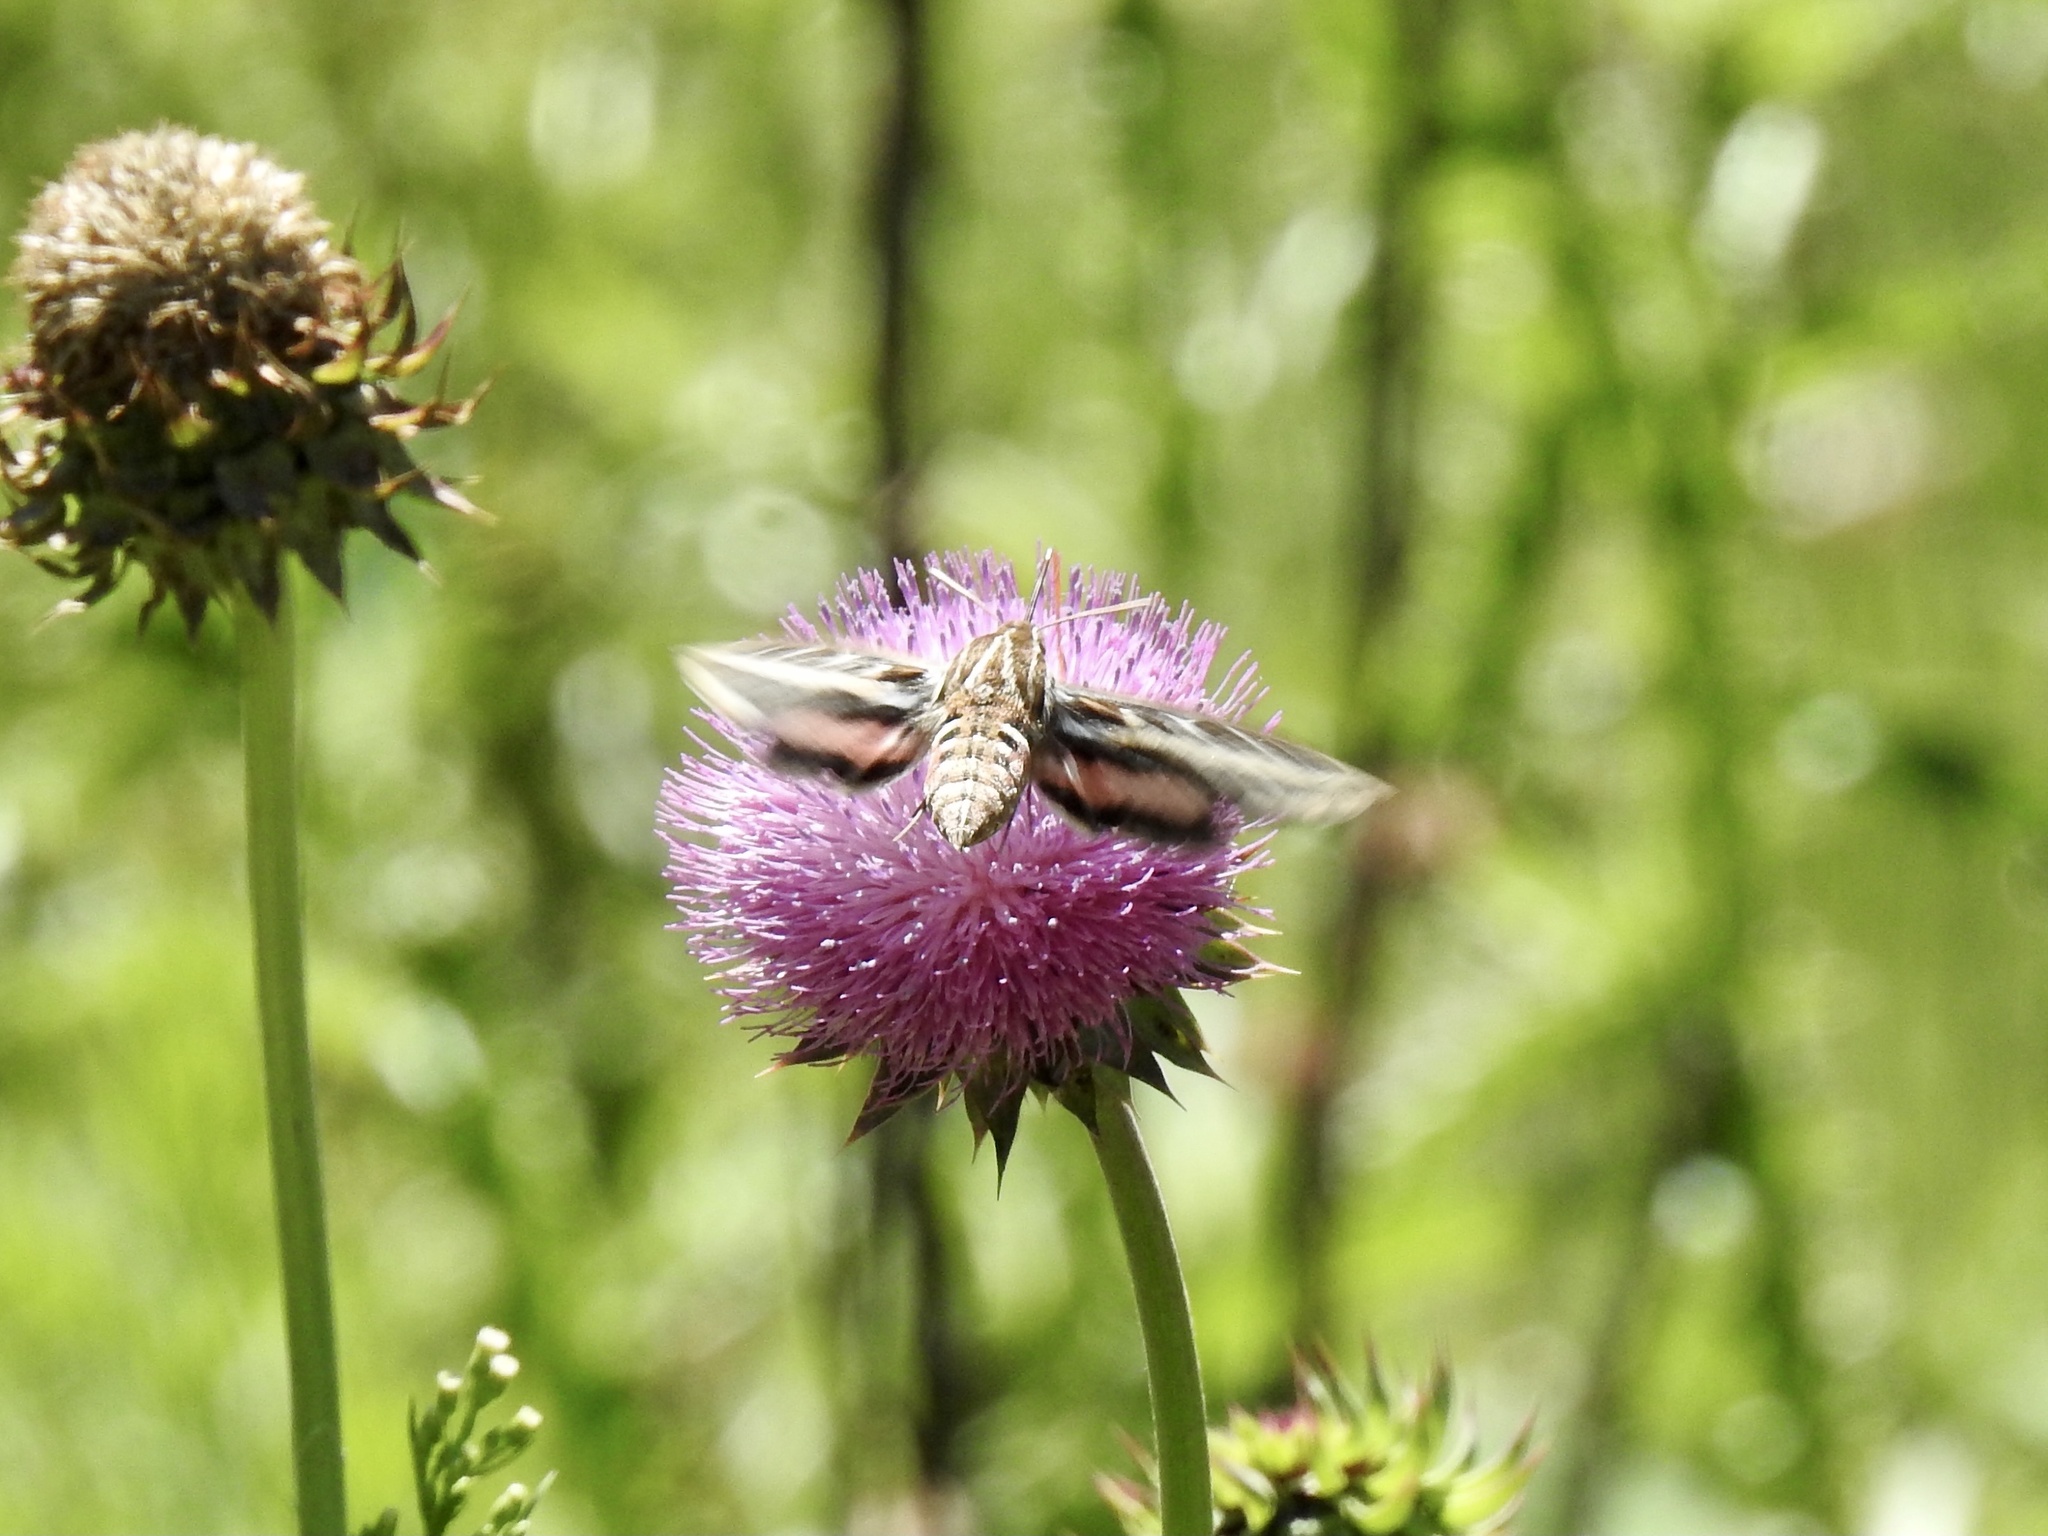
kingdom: Animalia
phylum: Arthropoda
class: Insecta
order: Lepidoptera
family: Sphingidae
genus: Hyles
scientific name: Hyles lineata
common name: White-lined sphinx
